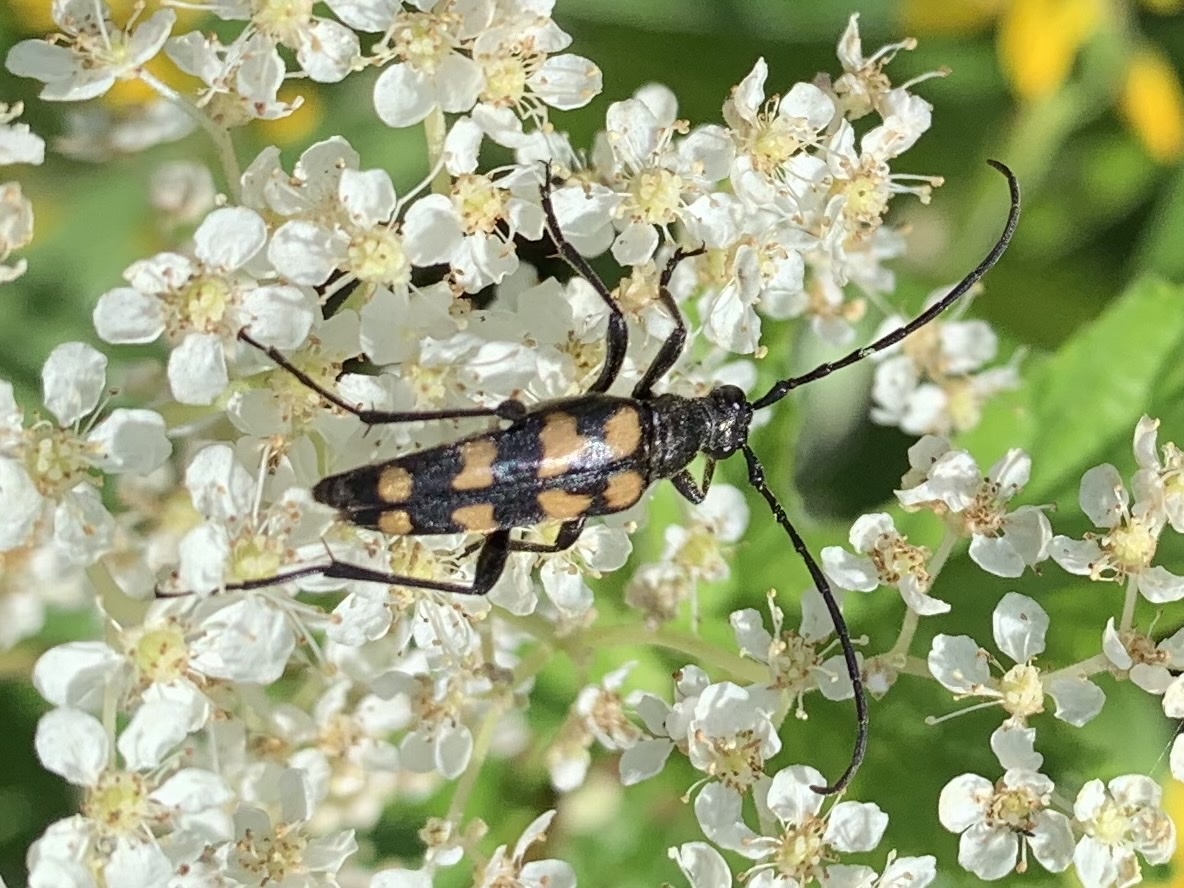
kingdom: Animalia
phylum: Arthropoda
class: Insecta
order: Coleoptera
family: Cerambycidae
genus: Leptura
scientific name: Leptura quadrifasciata
